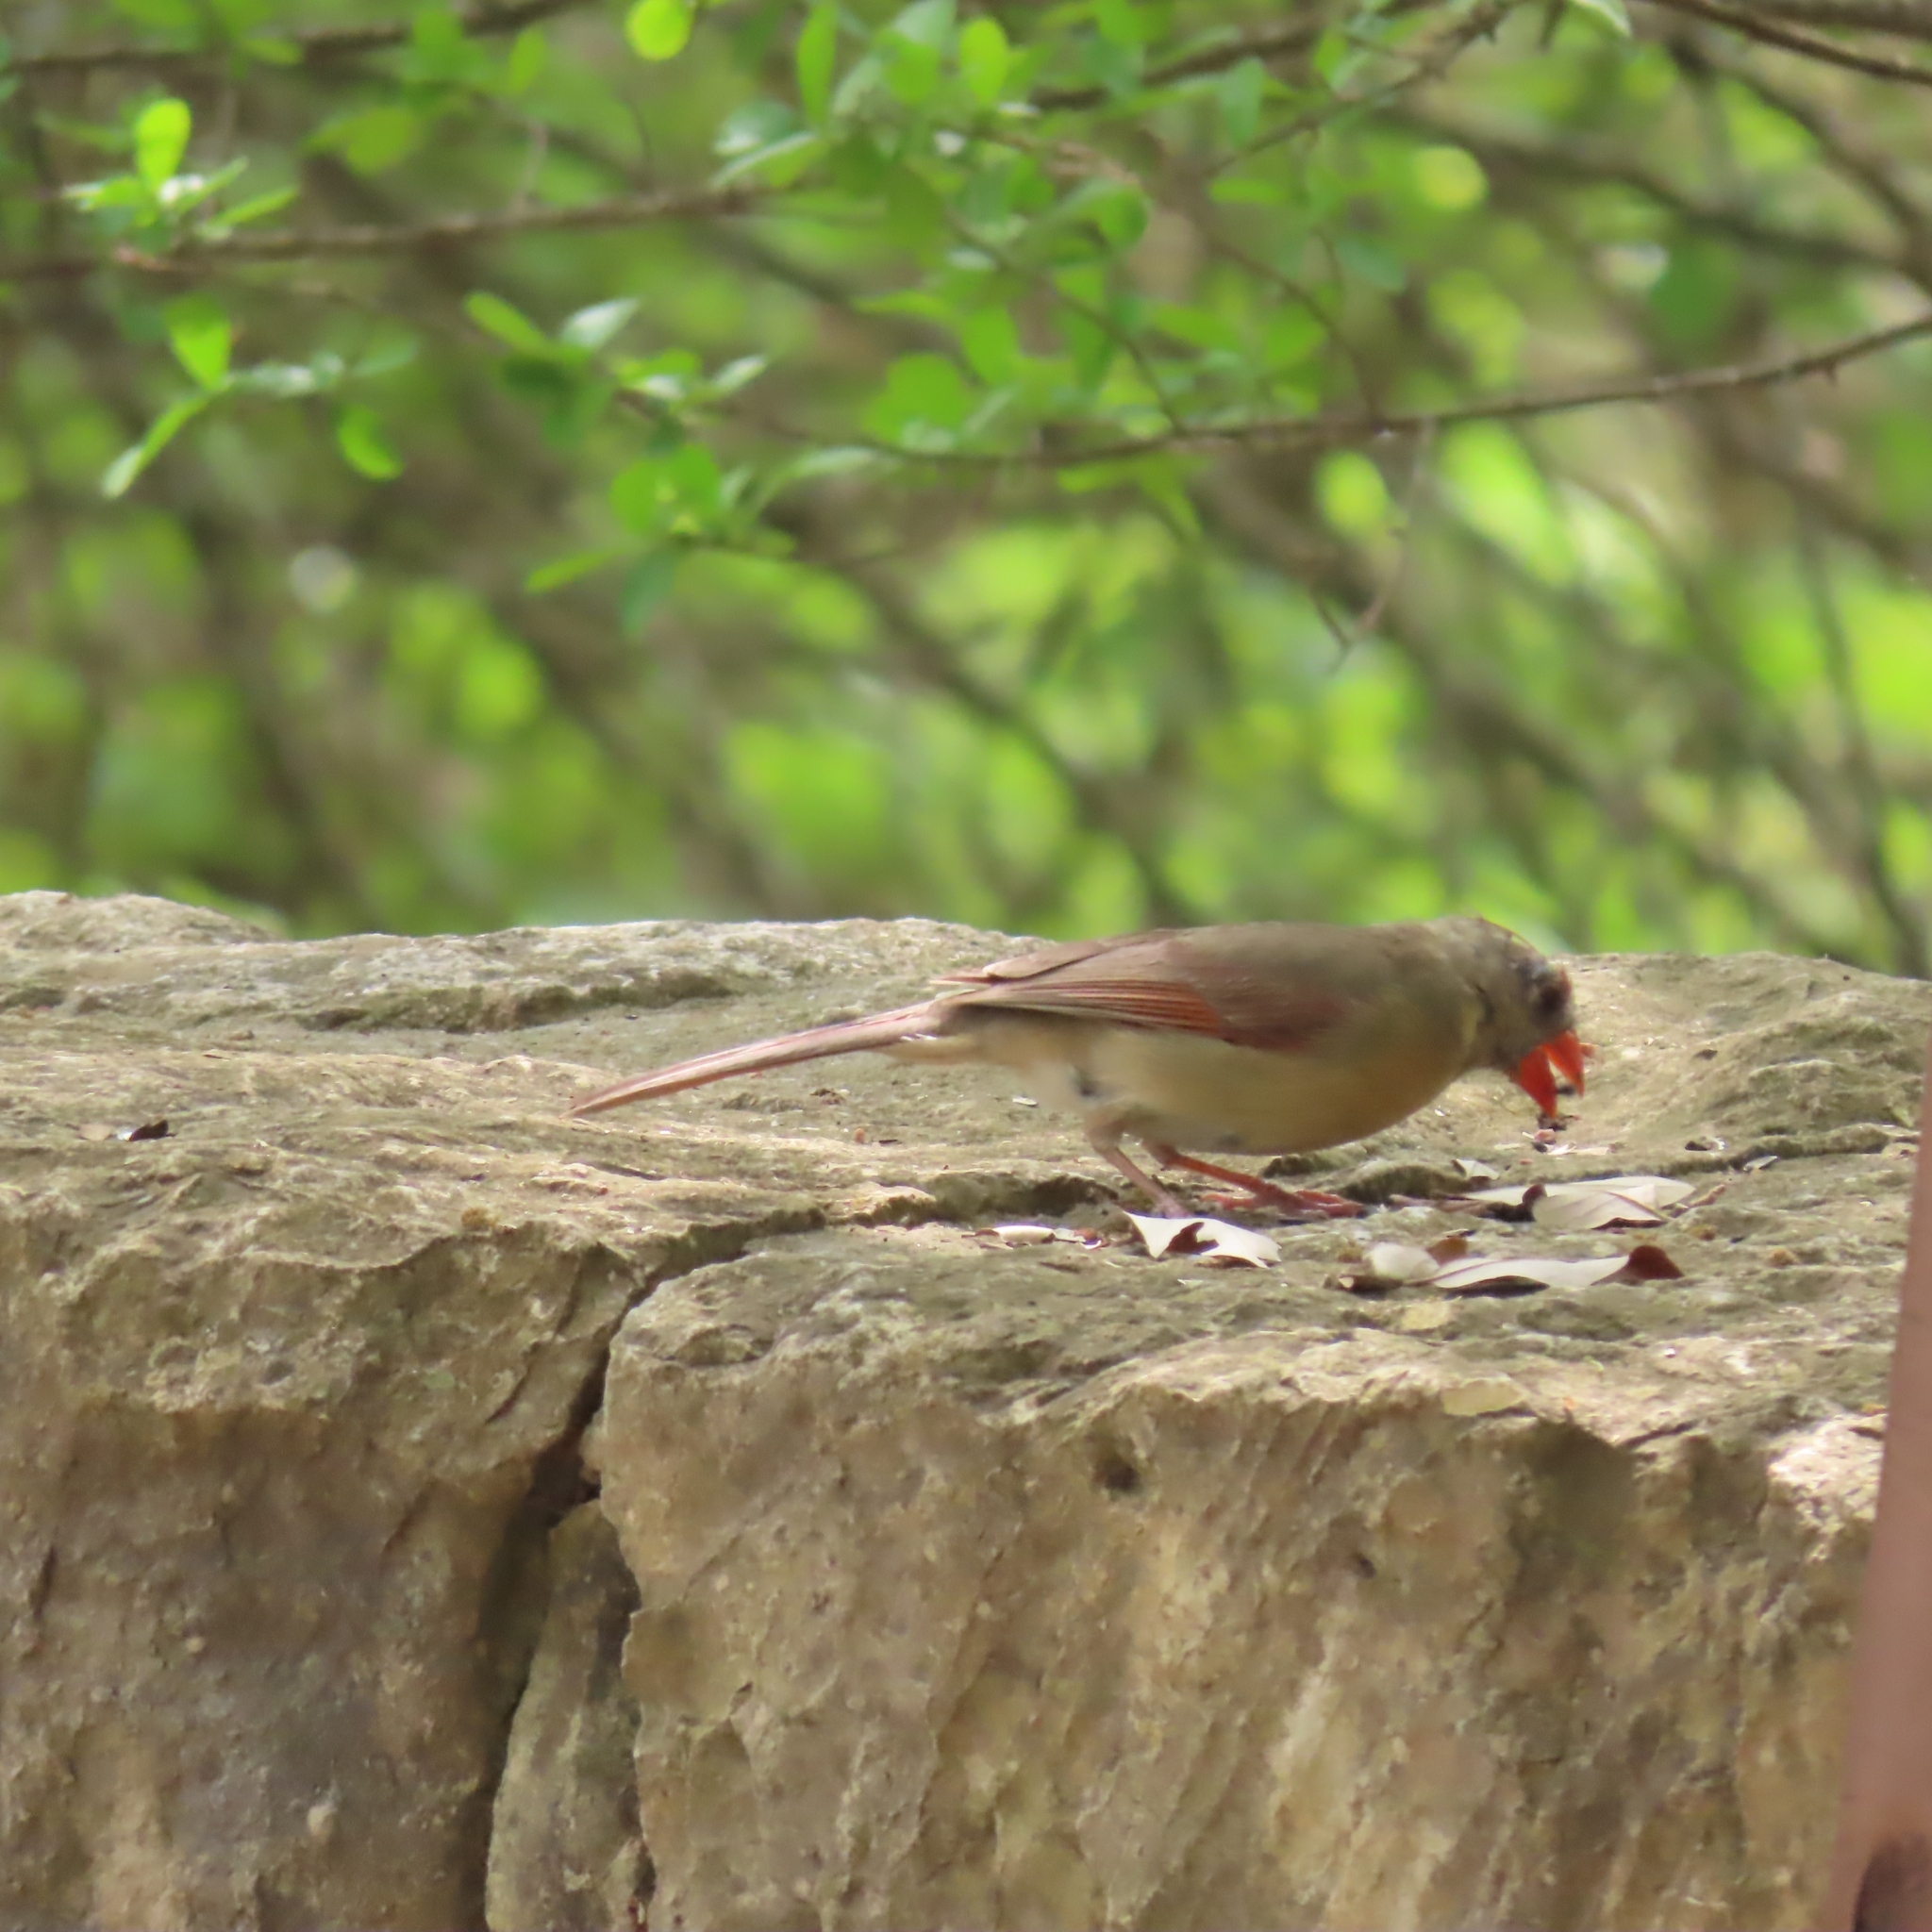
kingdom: Animalia
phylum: Chordata
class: Aves
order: Passeriformes
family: Cardinalidae
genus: Cardinalis
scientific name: Cardinalis cardinalis
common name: Northern cardinal
